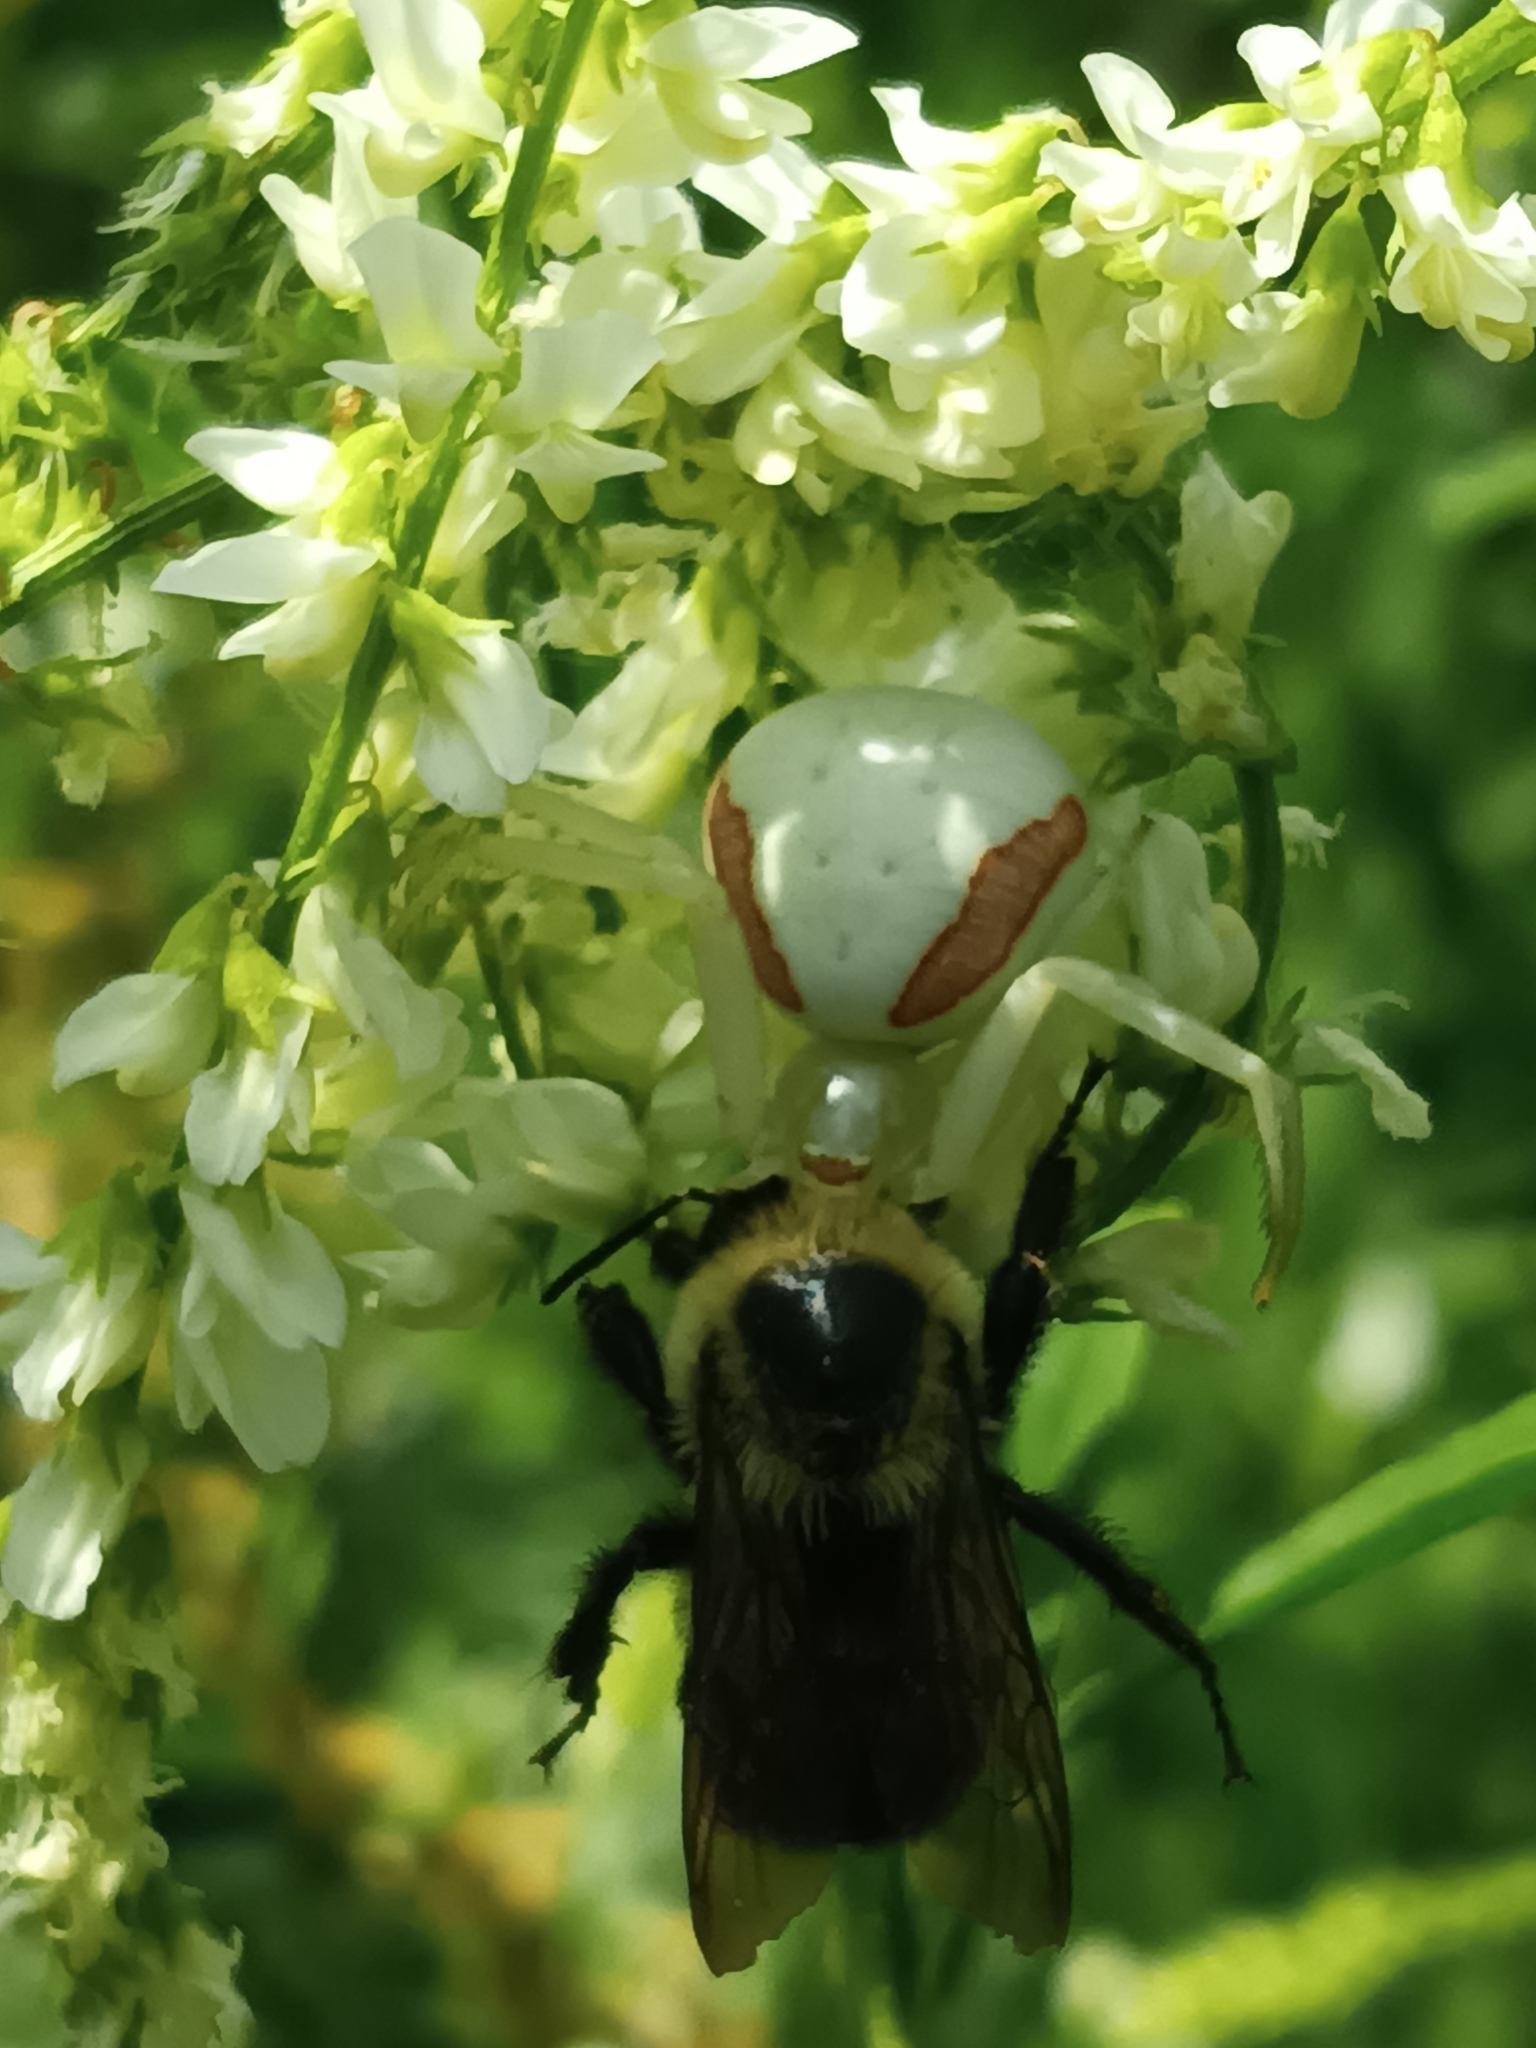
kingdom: Animalia
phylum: Arthropoda
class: Insecta
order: Hymenoptera
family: Apidae
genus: Bombus
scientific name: Bombus
